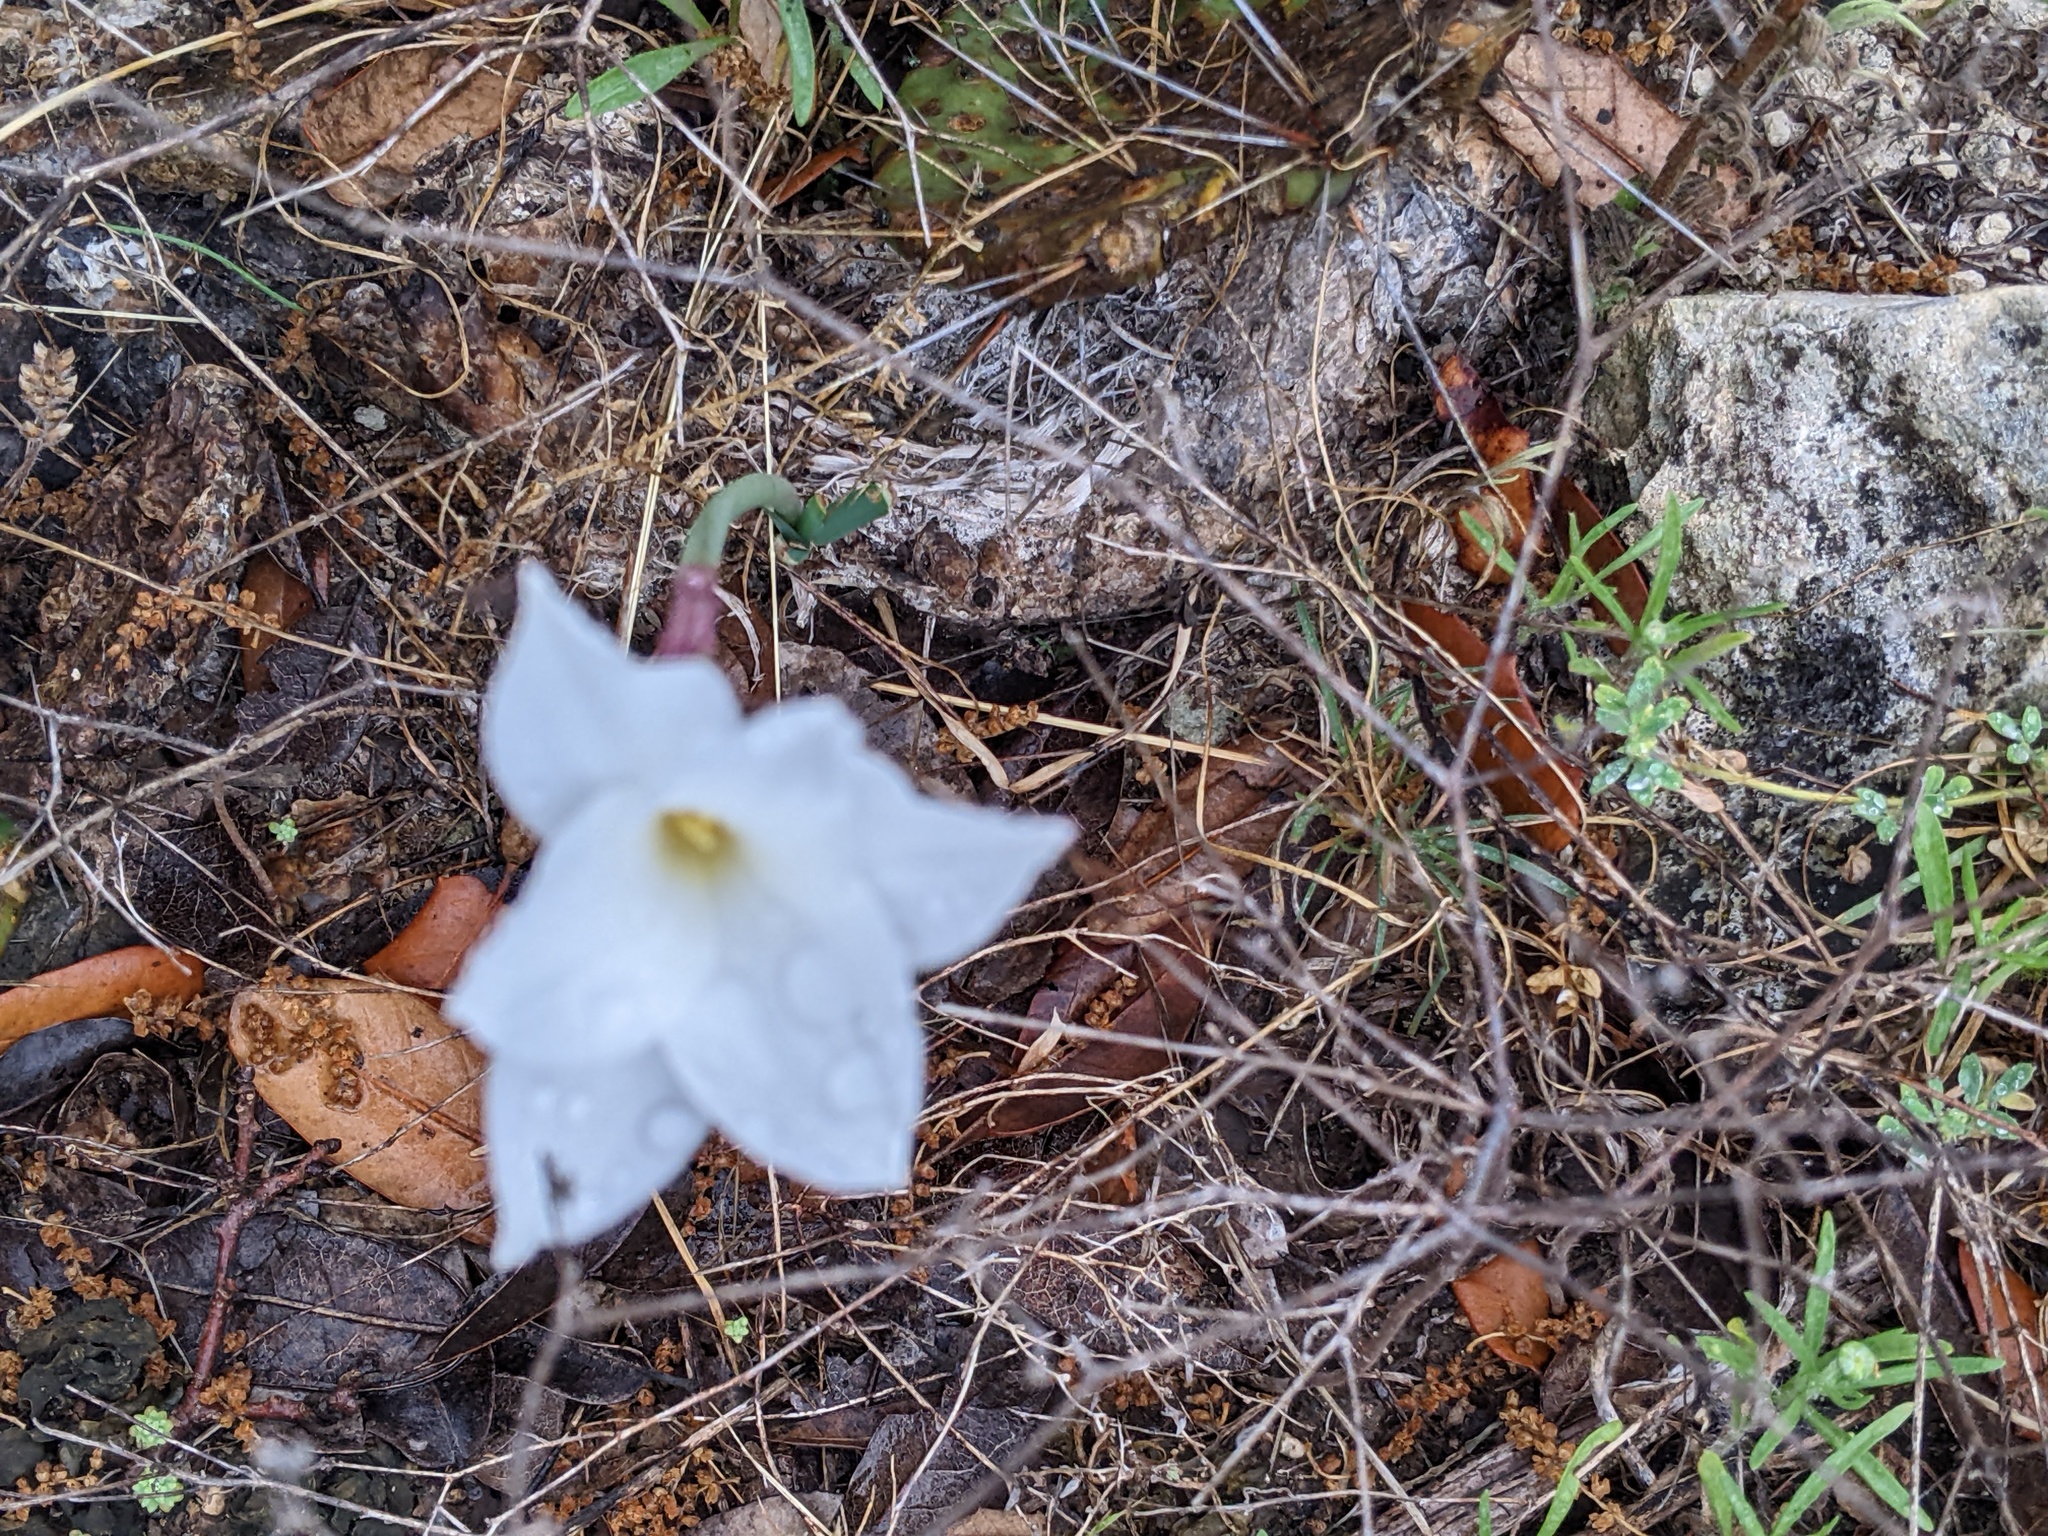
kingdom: Plantae
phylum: Tracheophyta
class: Liliopsida
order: Asparagales
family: Amaryllidaceae
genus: Zephyranthes
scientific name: Zephyranthes drummondii
